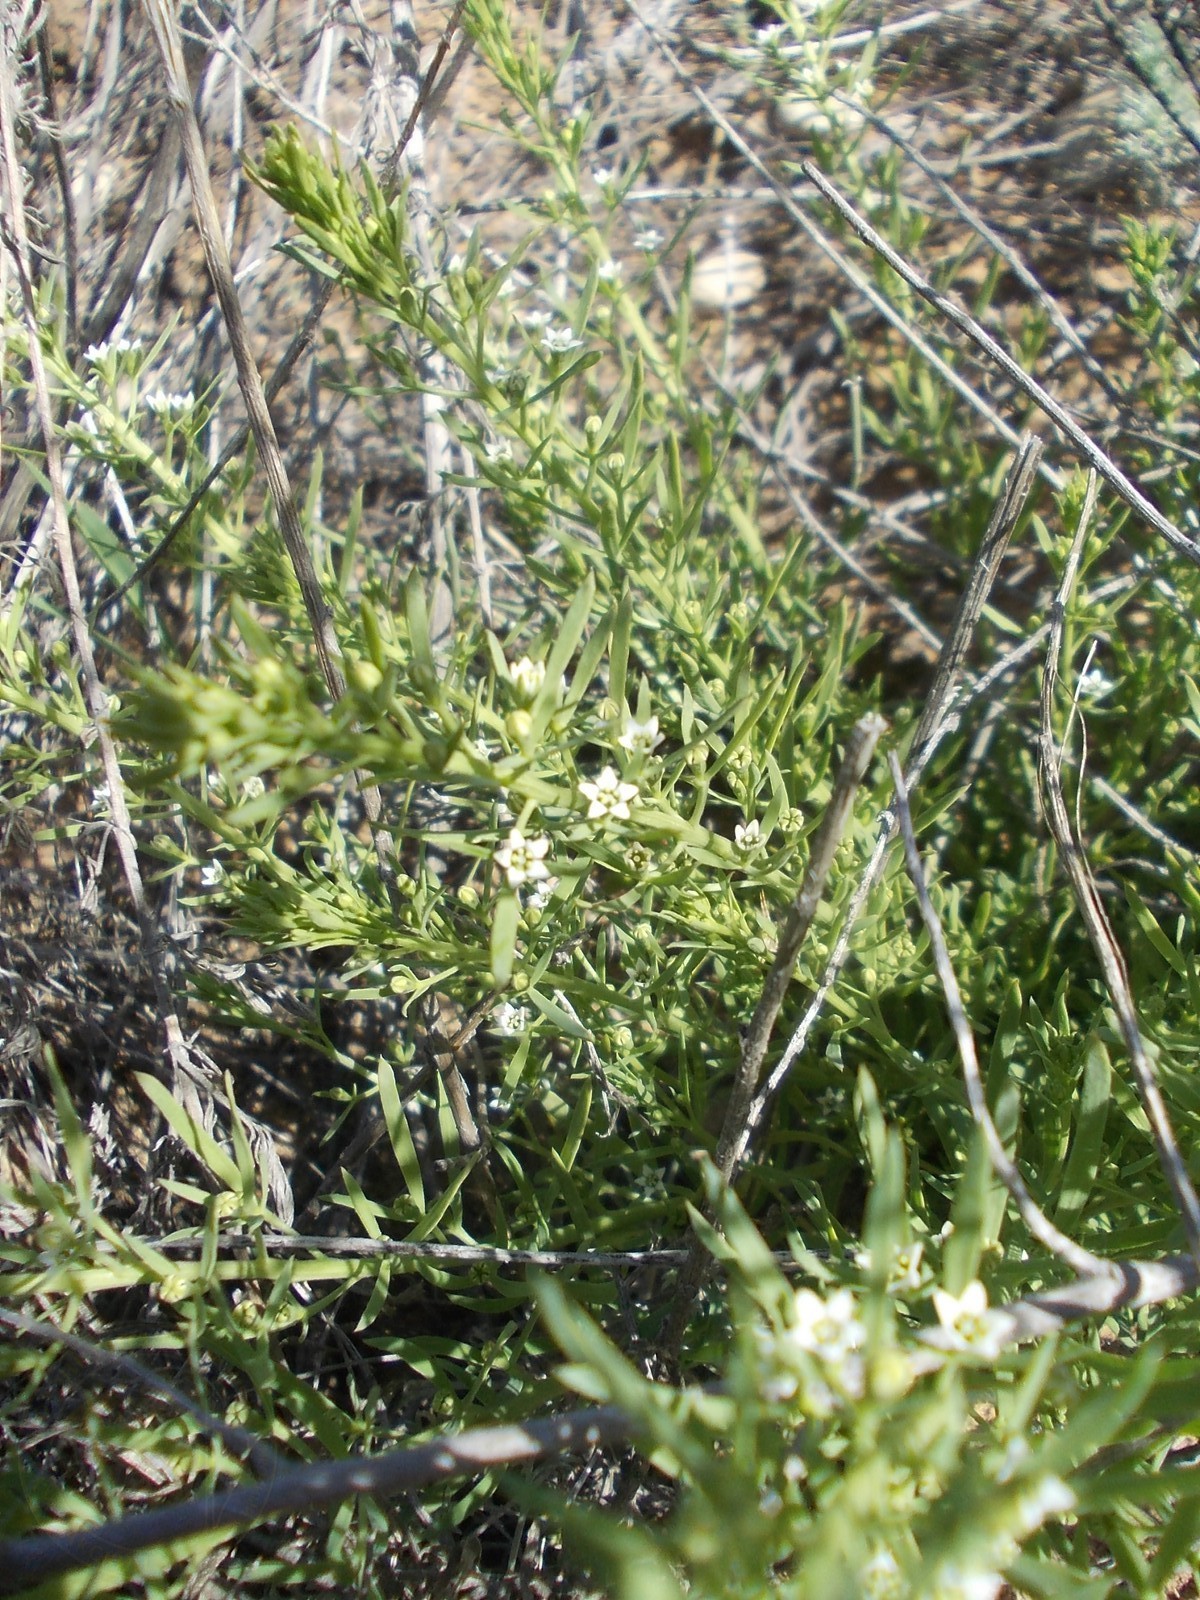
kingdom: Plantae
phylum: Tracheophyta
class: Magnoliopsida
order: Santalales
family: Thesiaceae
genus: Thesium
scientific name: Thesium ramosum
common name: Field thesium
